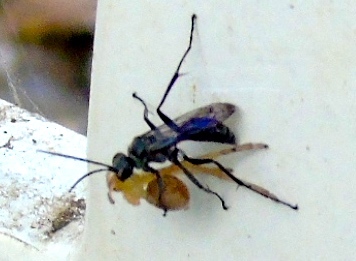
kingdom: Animalia
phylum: Arthropoda
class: Insecta
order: Hymenoptera
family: Pompilidae
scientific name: Pompilidae
